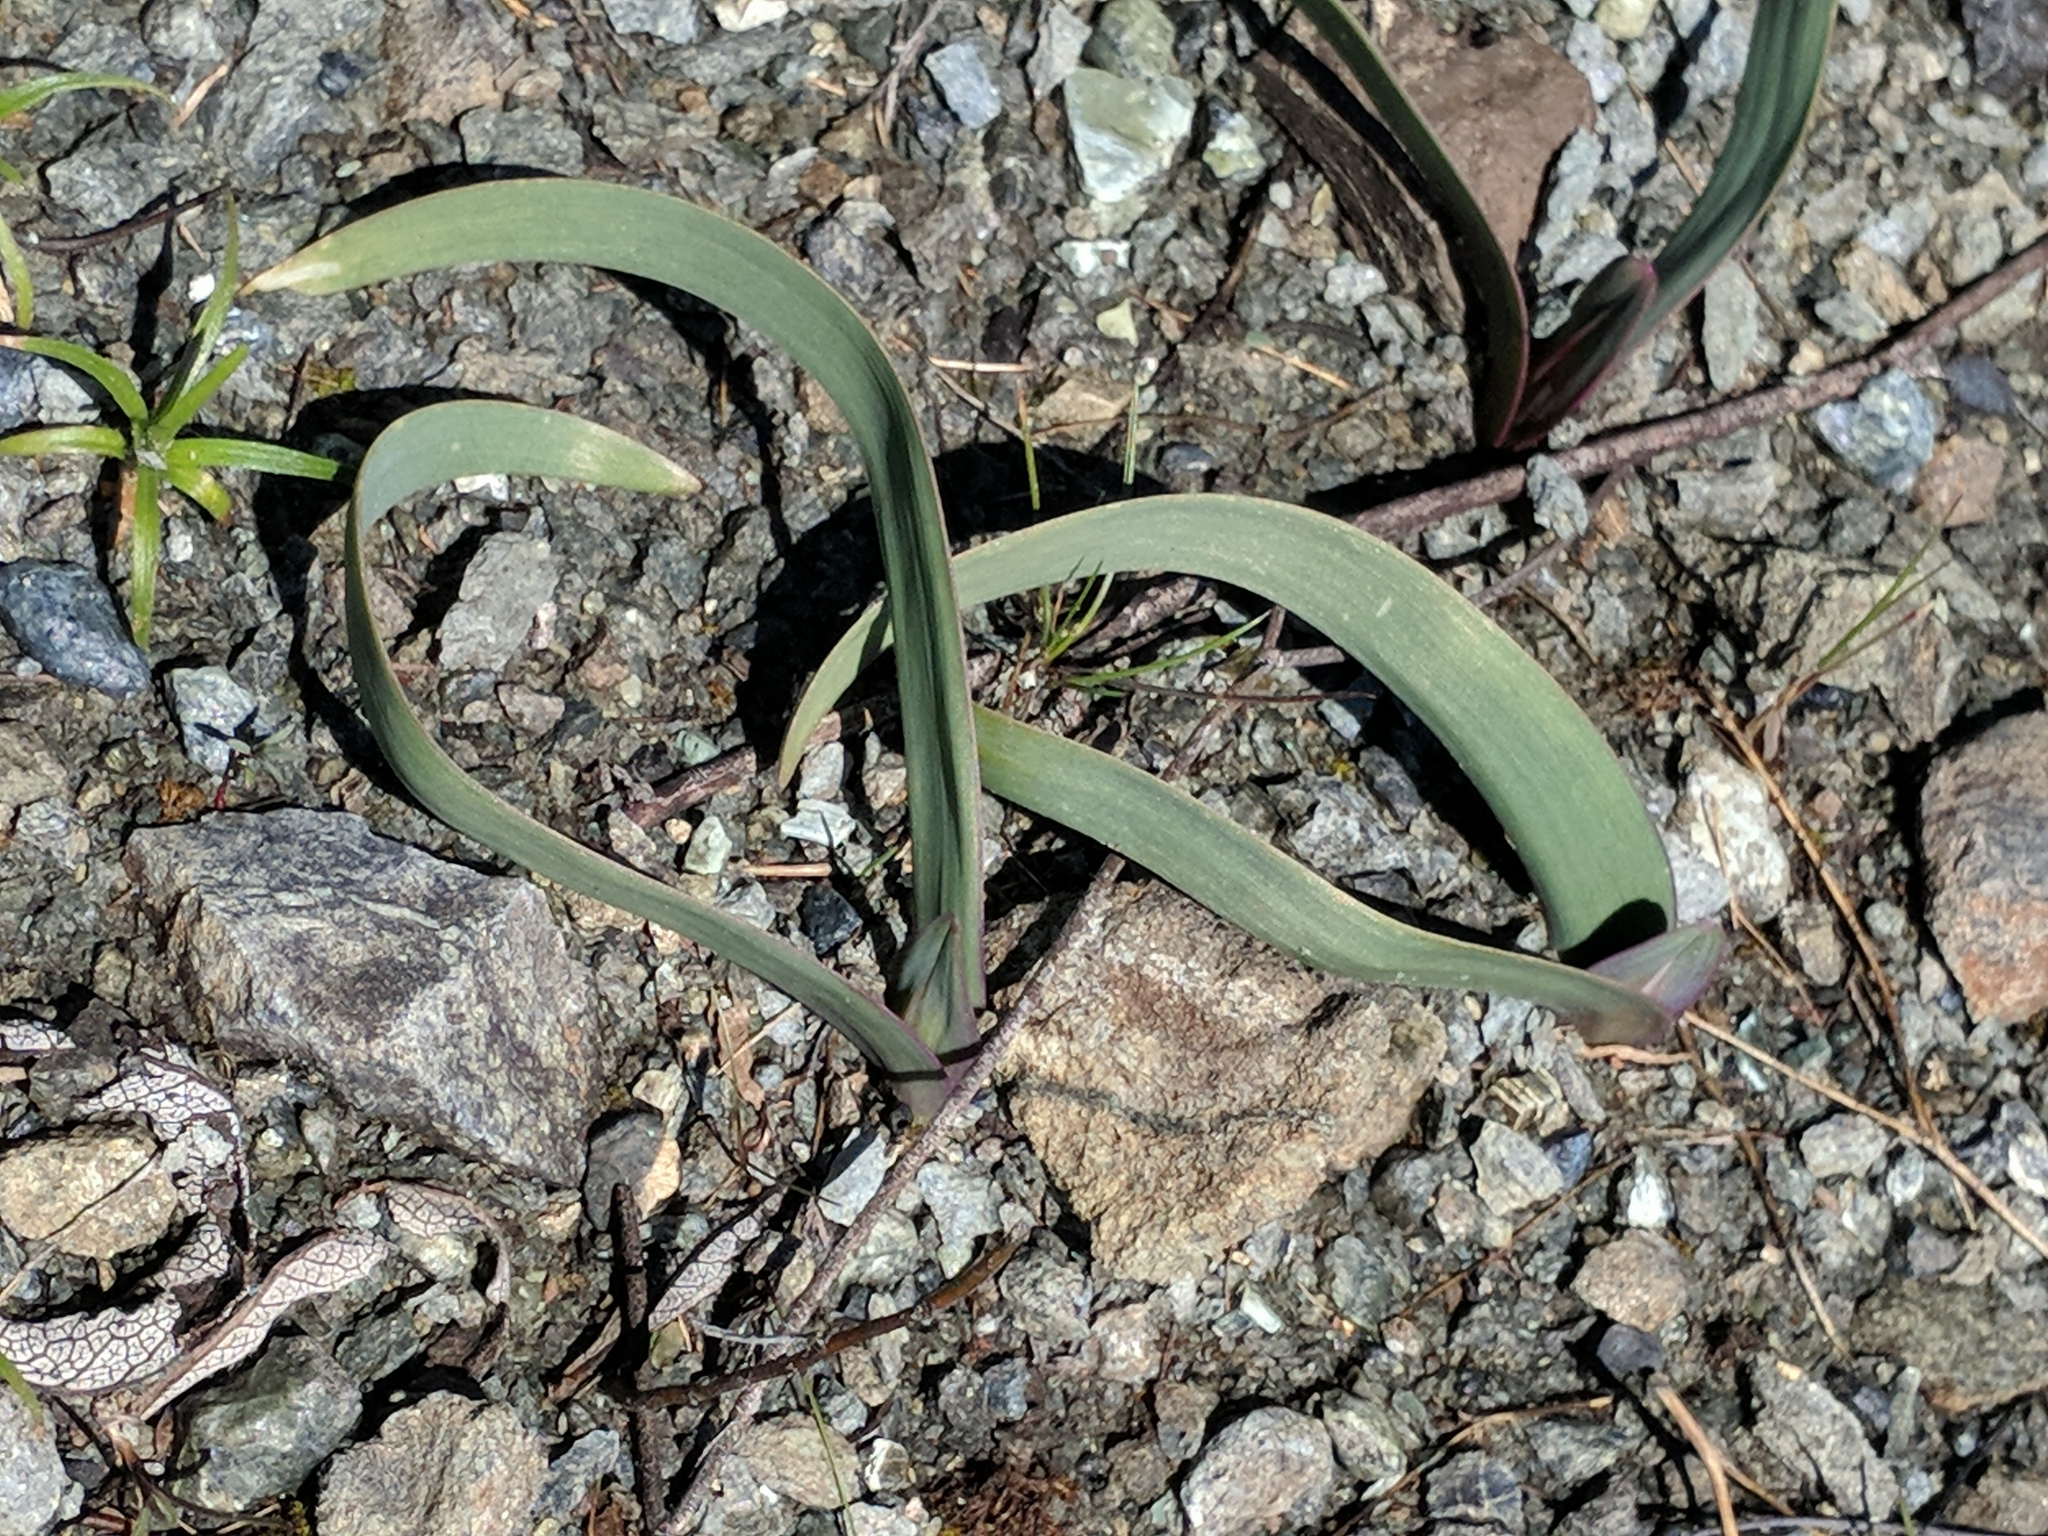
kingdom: Plantae
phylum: Tracheophyta
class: Liliopsida
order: Asparagales
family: Amaryllidaceae
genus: Allium
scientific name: Allium falcifolium
